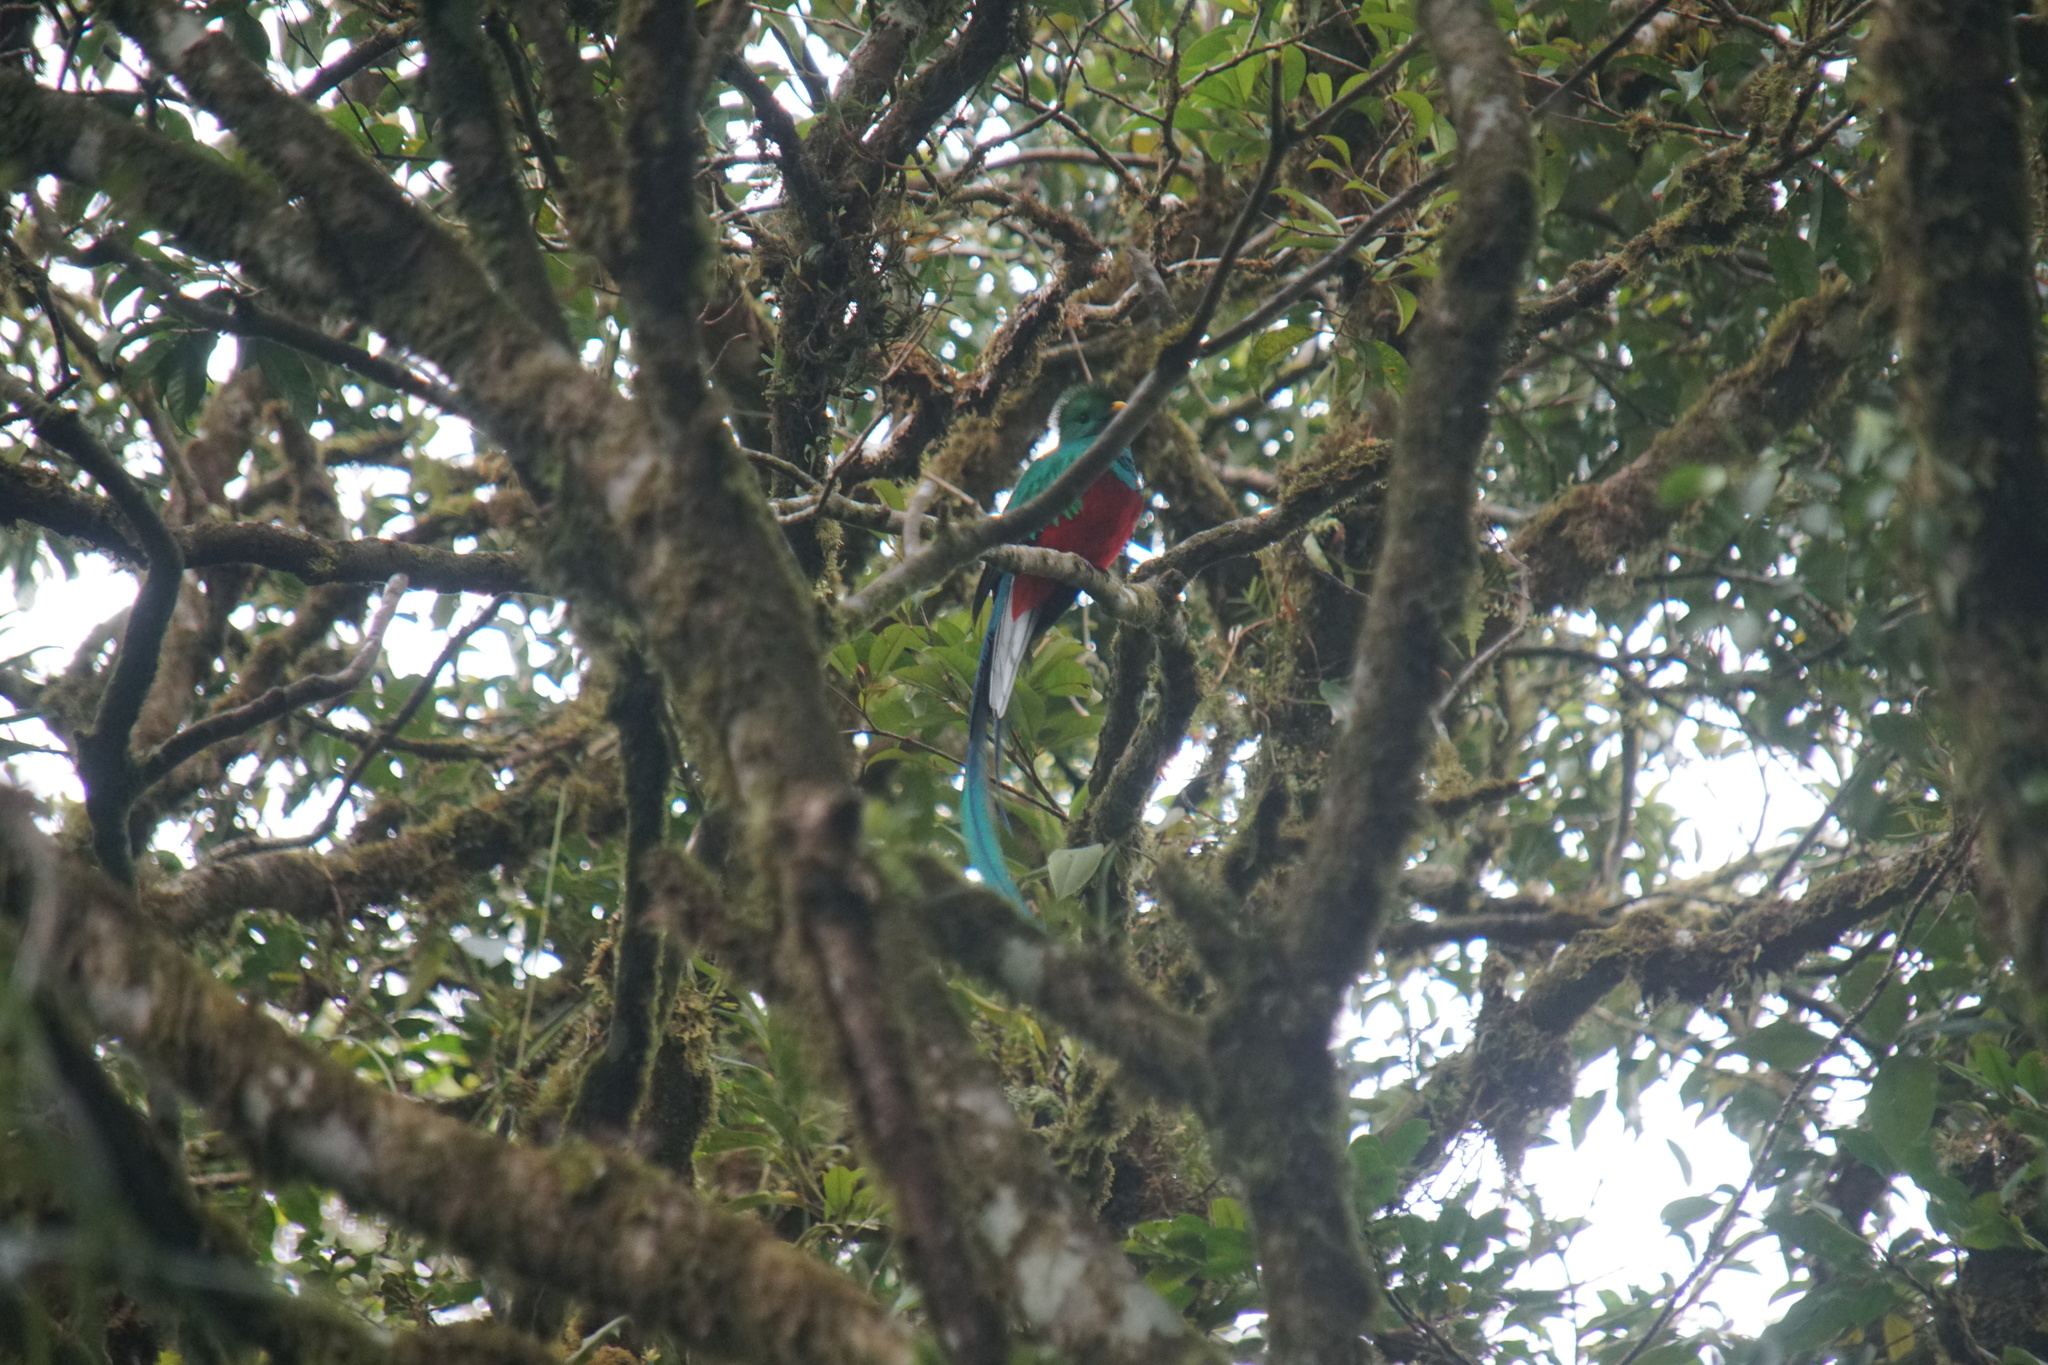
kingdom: Animalia
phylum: Chordata
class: Aves
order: Trogoniformes
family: Trogonidae
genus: Pharomachrus
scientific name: Pharomachrus mocinno
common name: Resplendent quetzal
